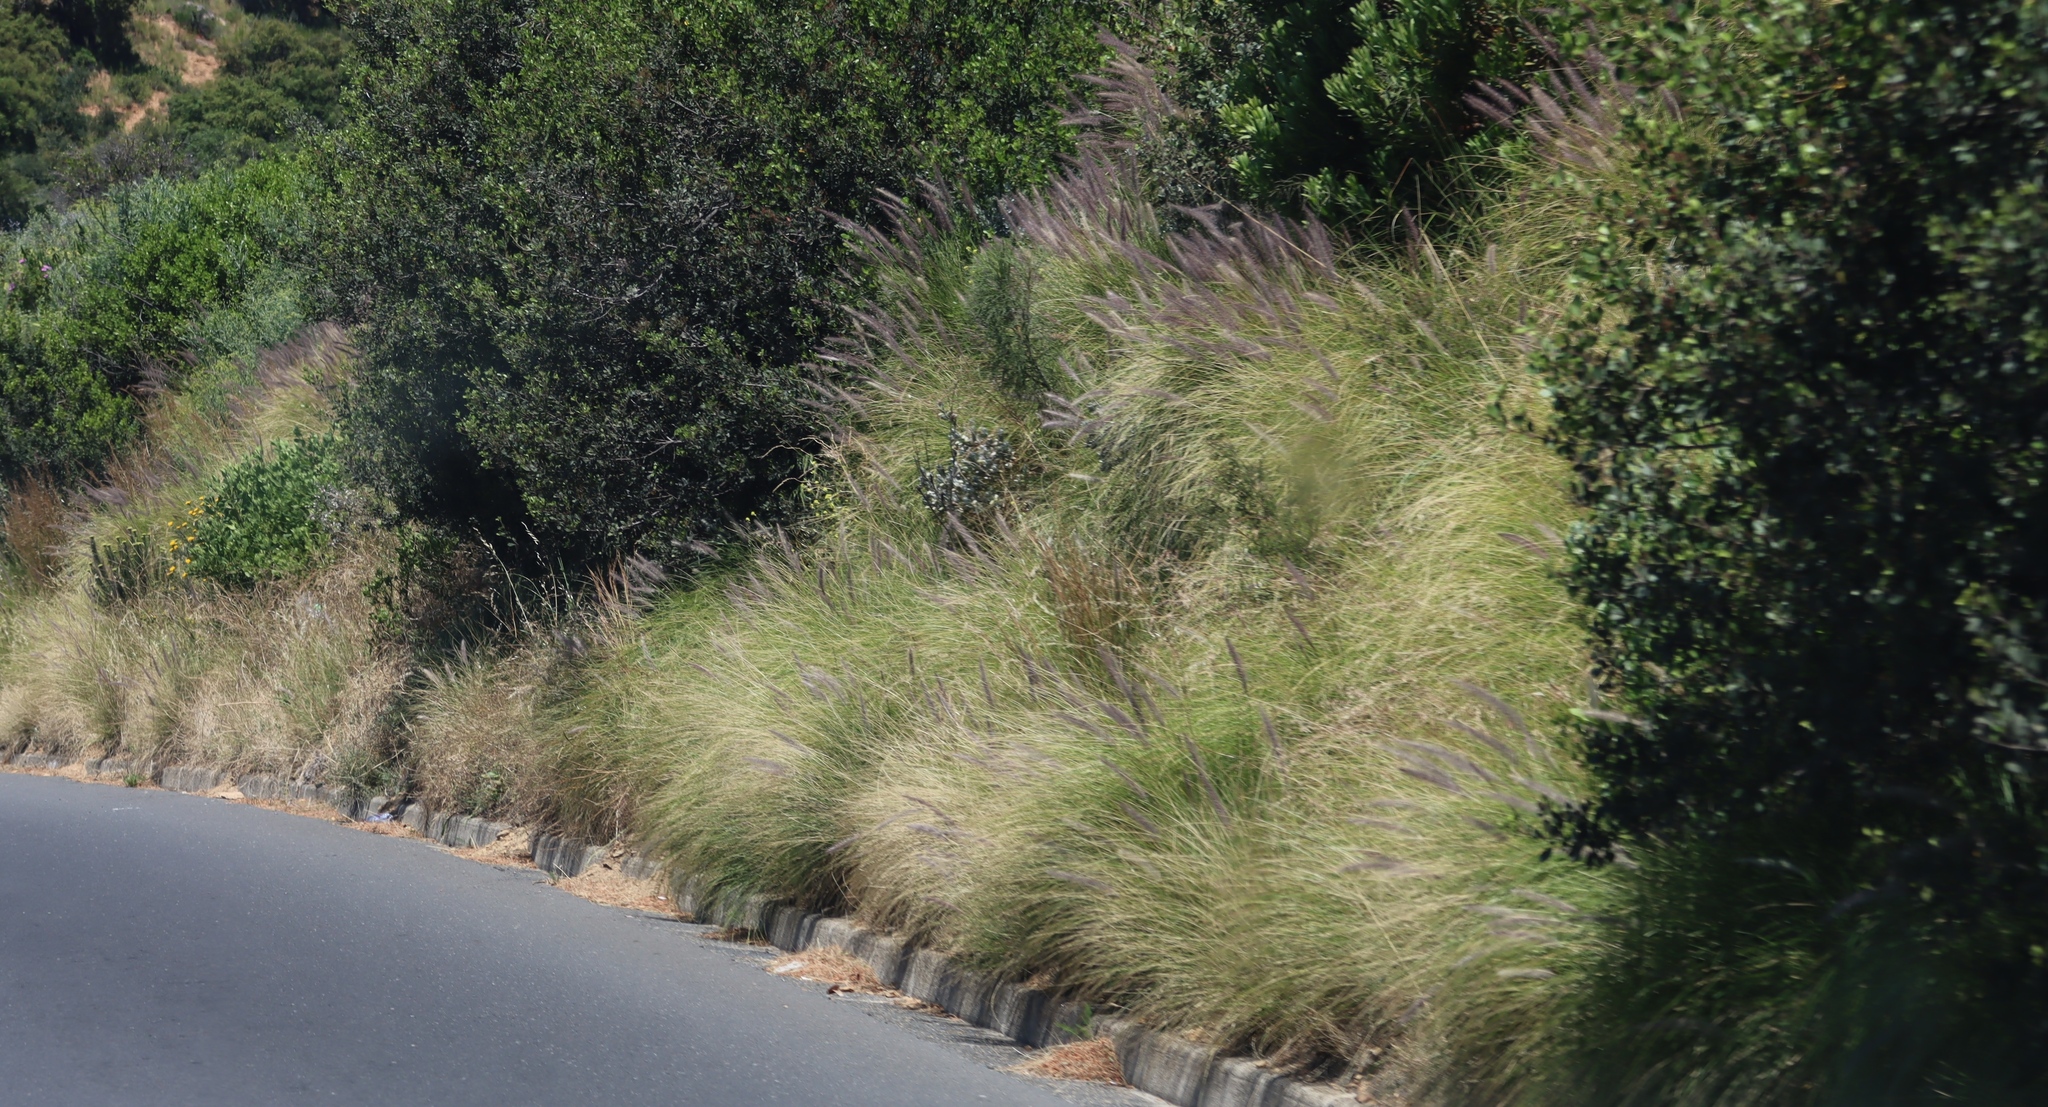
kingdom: Plantae
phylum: Tracheophyta
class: Liliopsida
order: Poales
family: Poaceae
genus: Cenchrus
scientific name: Cenchrus setaceus
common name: Crimson fountaingrass
